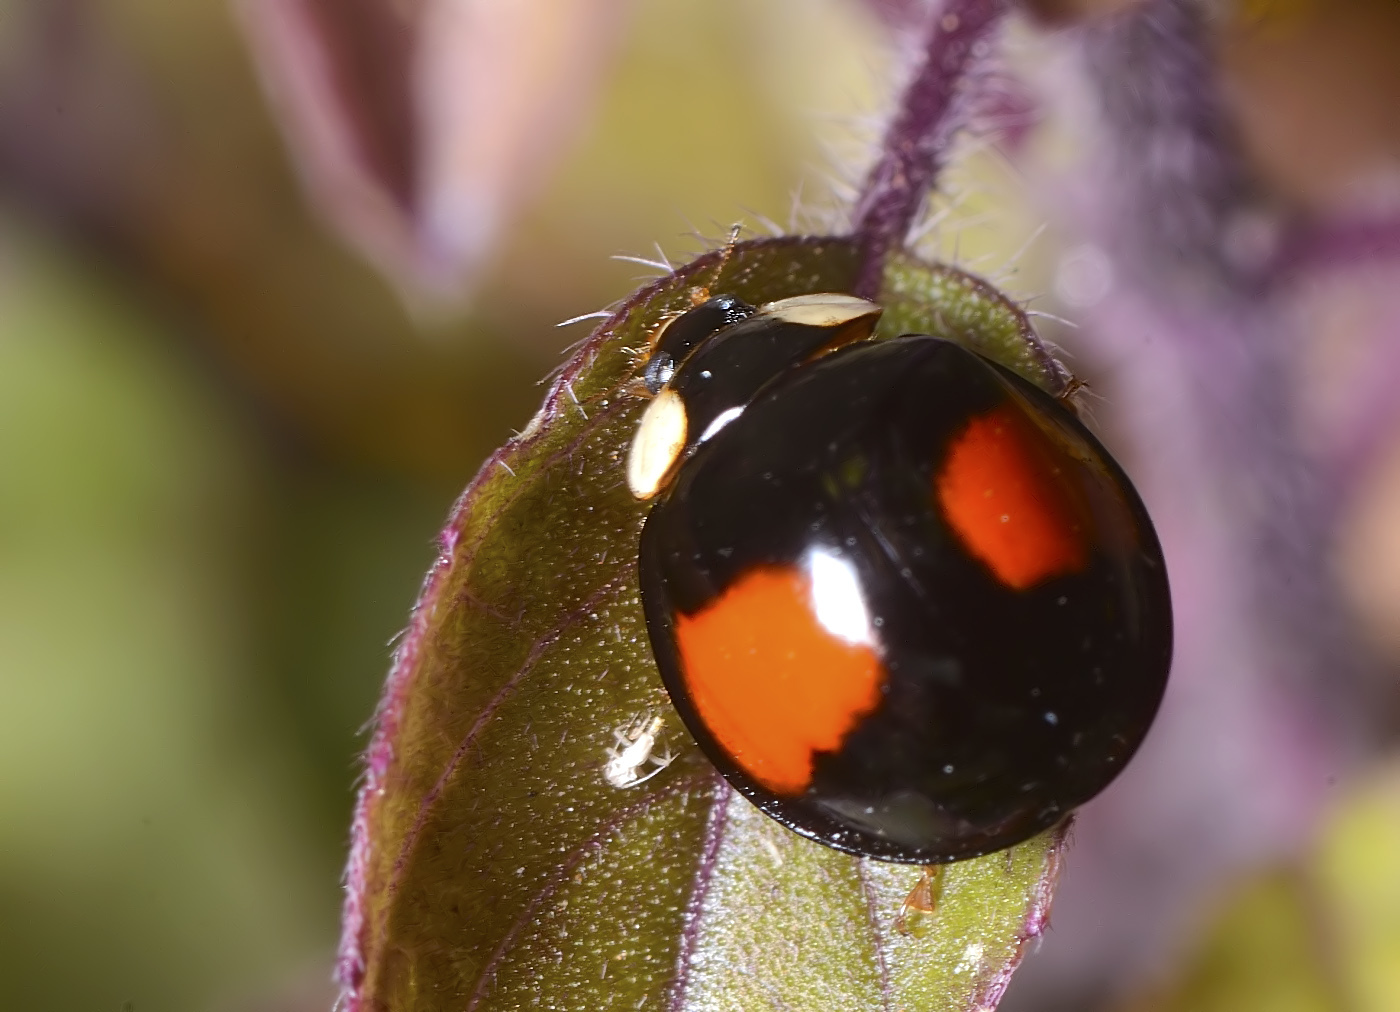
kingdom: Animalia
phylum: Arthropoda
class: Insecta
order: Coleoptera
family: Coccinellidae
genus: Coelophora
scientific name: Coelophora saucia
